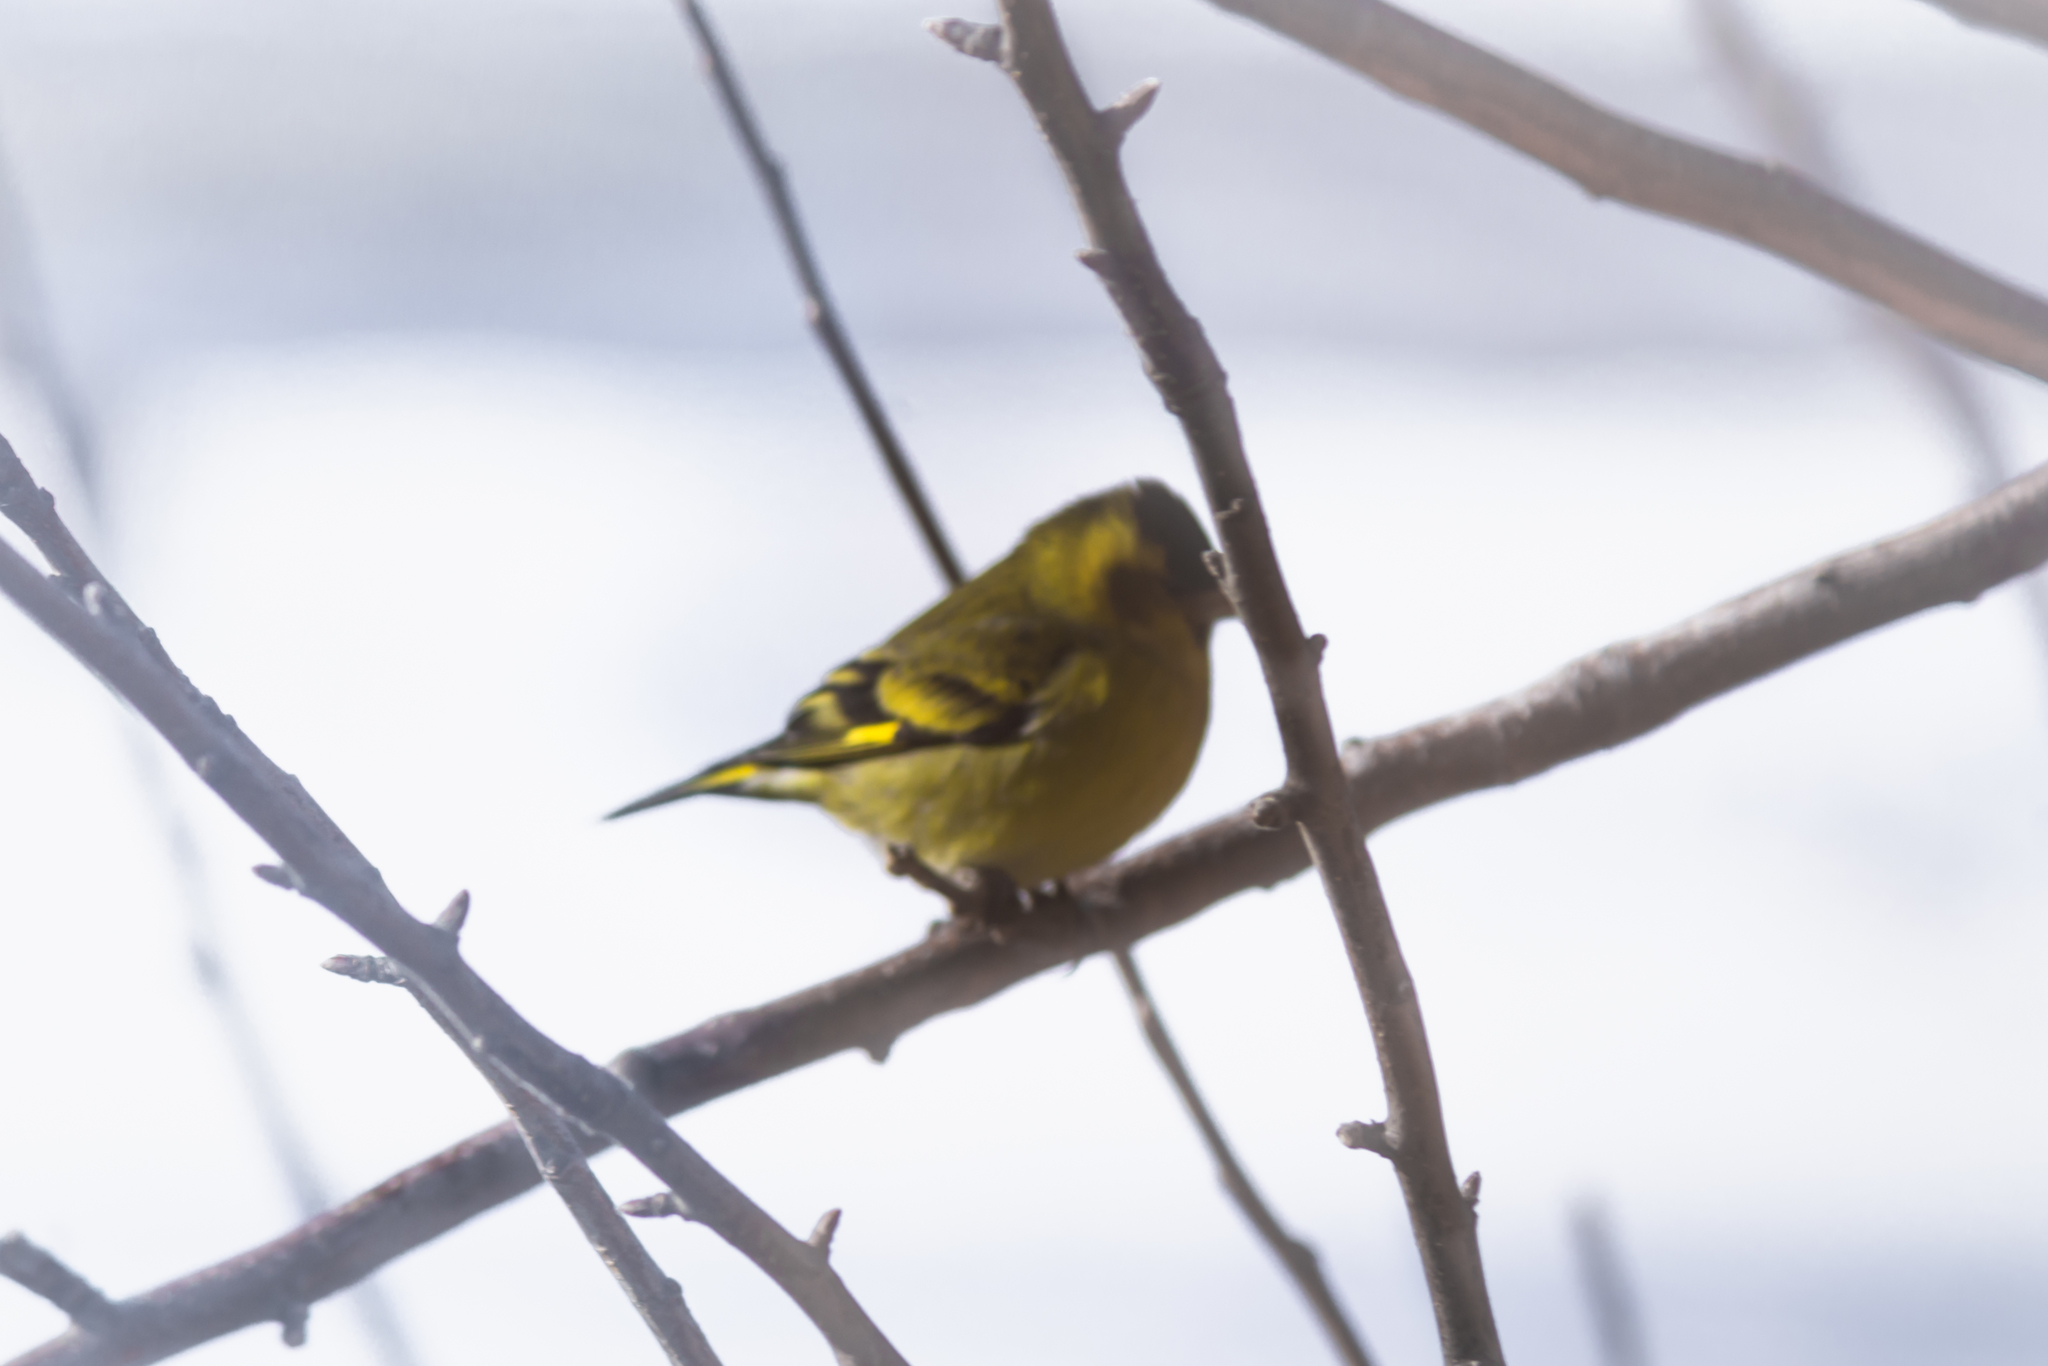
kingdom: Animalia
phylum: Chordata
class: Aves
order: Passeriformes
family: Fringillidae
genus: Spinus
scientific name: Spinus barbatus
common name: Black-chinned siskin
